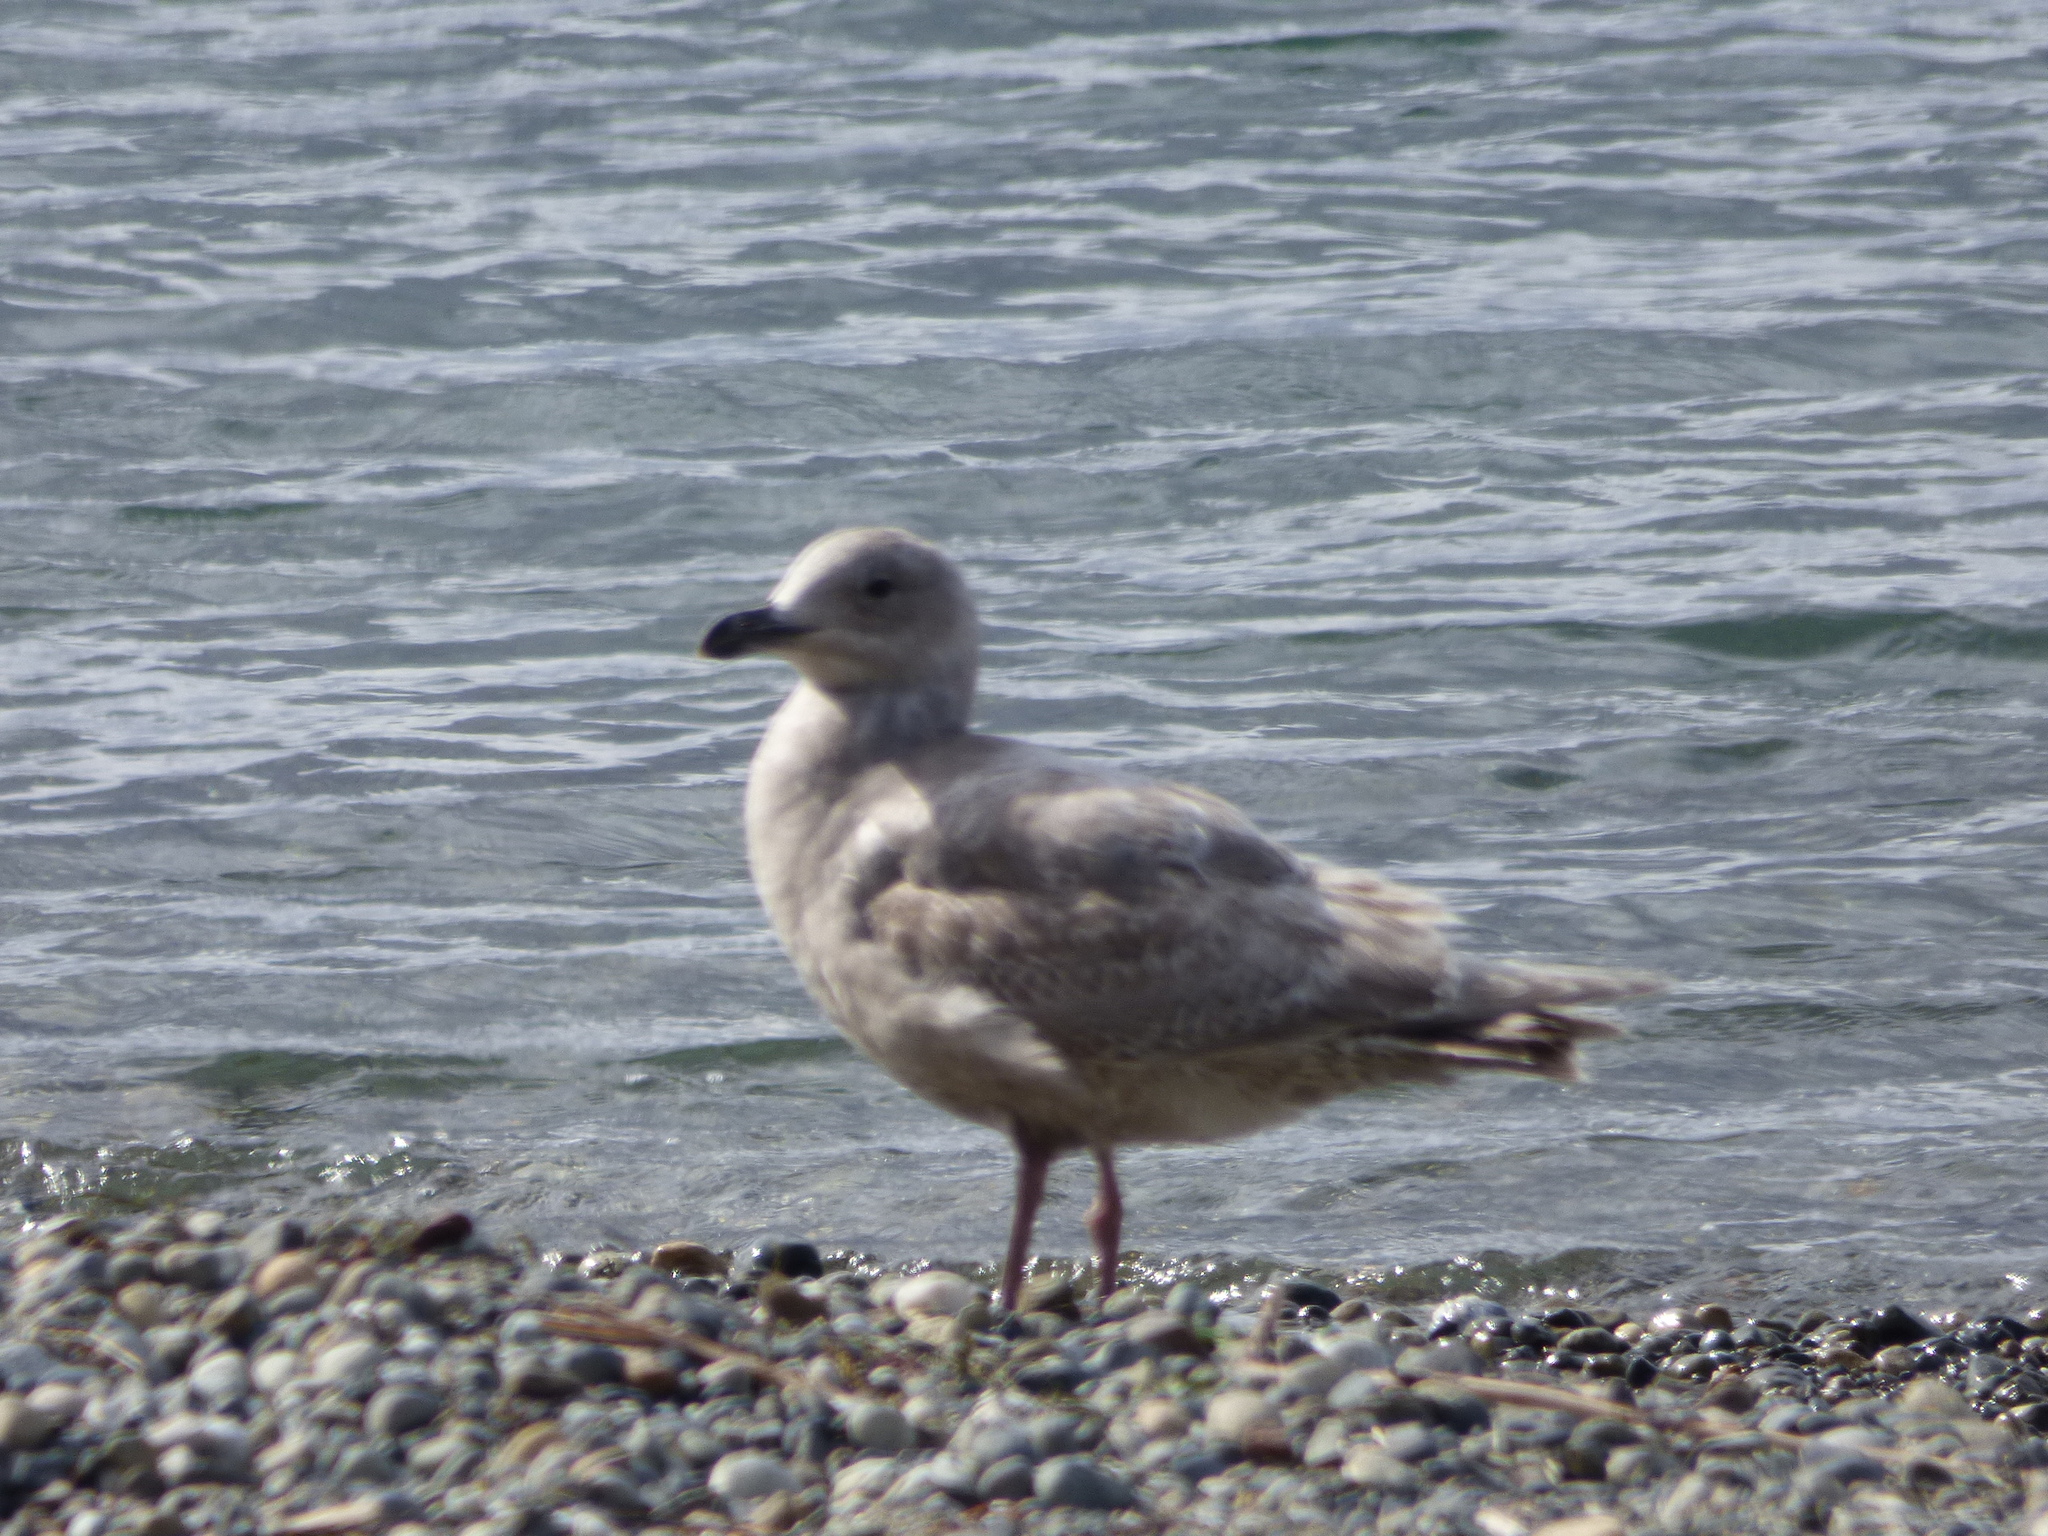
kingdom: Animalia
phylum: Chordata
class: Aves
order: Charadriiformes
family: Laridae
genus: Larus
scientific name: Larus
